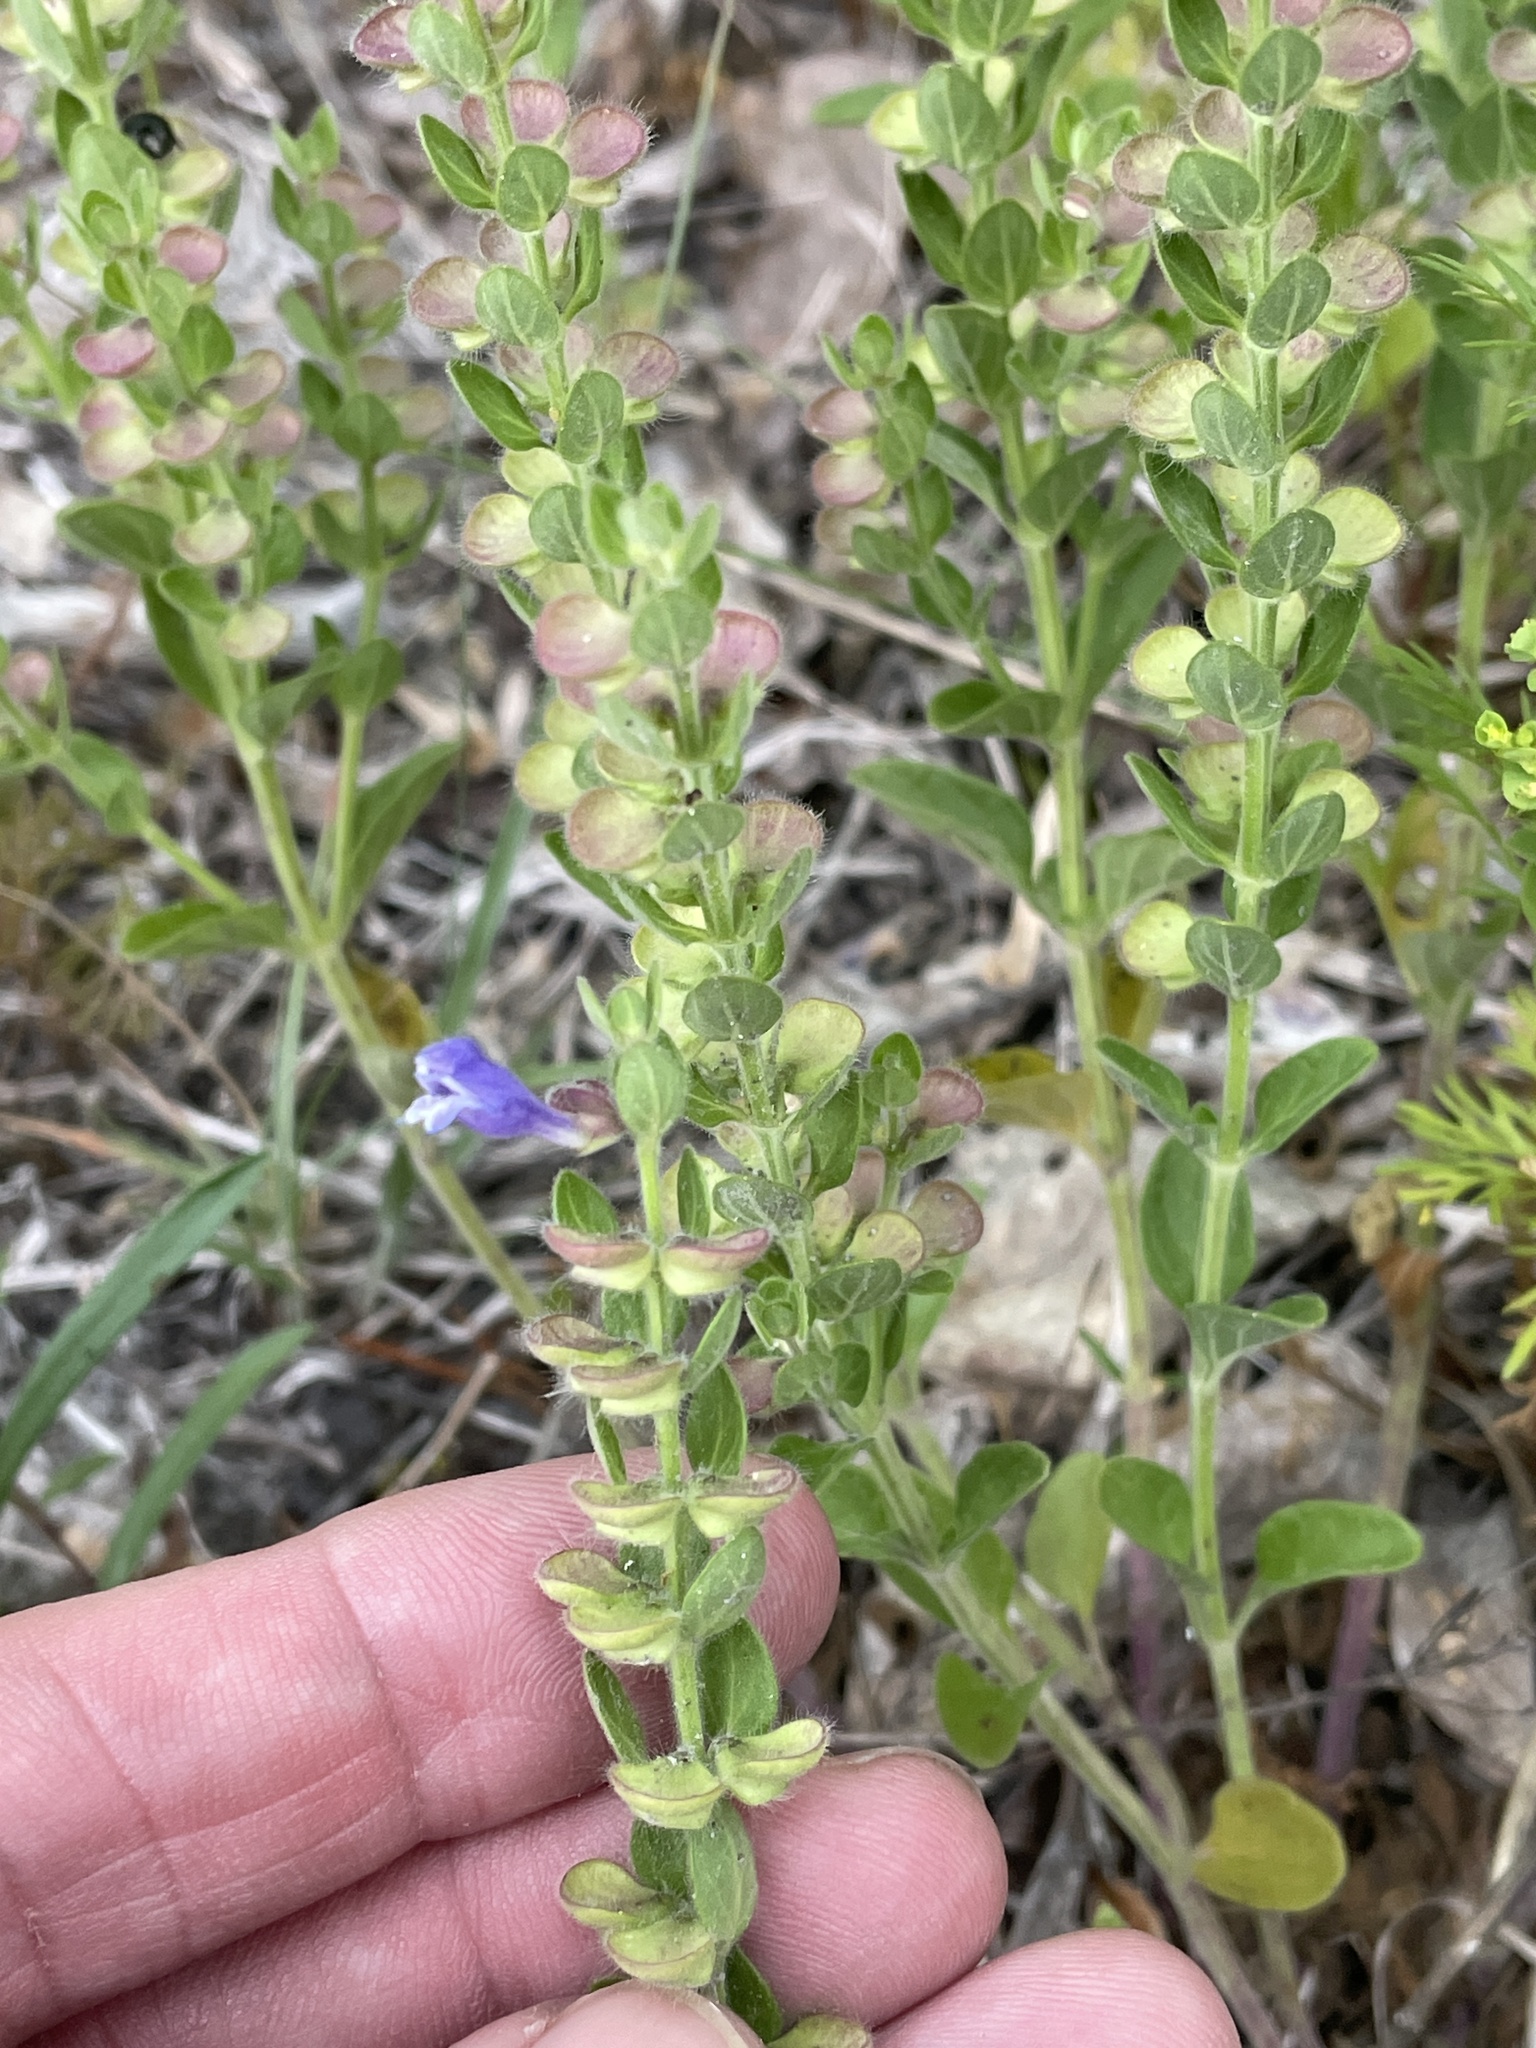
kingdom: Plantae
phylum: Tracheophyta
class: Magnoliopsida
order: Lamiales
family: Lamiaceae
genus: Scutellaria
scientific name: Scutellaria drummondii
